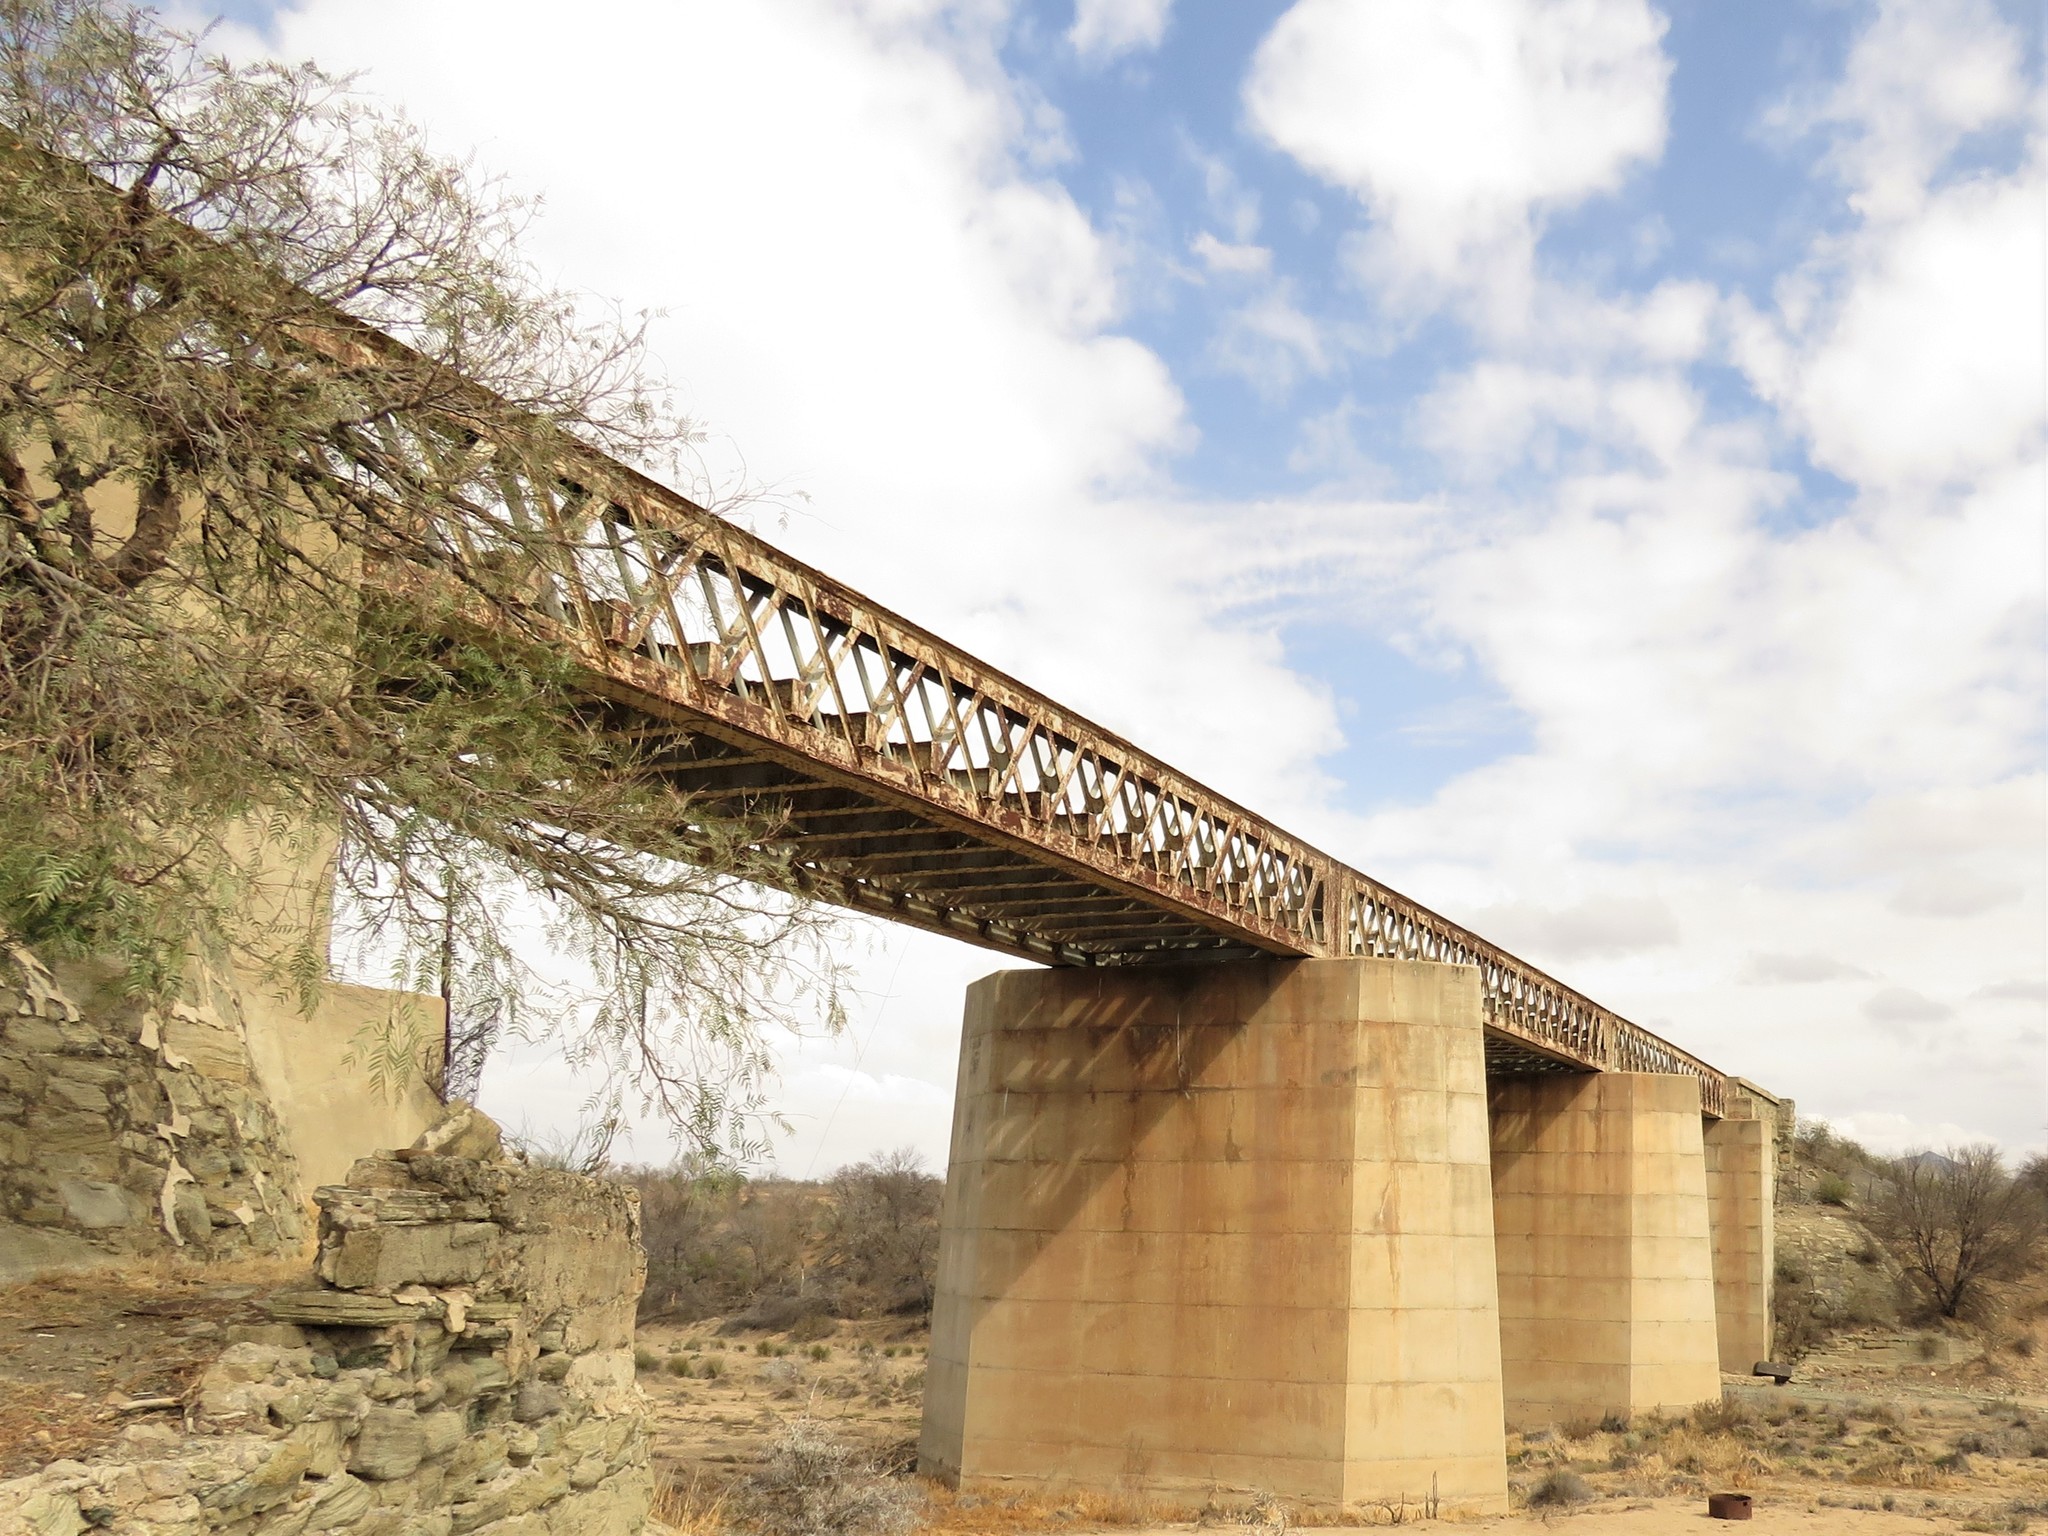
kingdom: Plantae
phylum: Tracheophyta
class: Magnoliopsida
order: Sapindales
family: Anacardiaceae
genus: Schinus
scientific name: Schinus molle
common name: Peruvian peppertree
